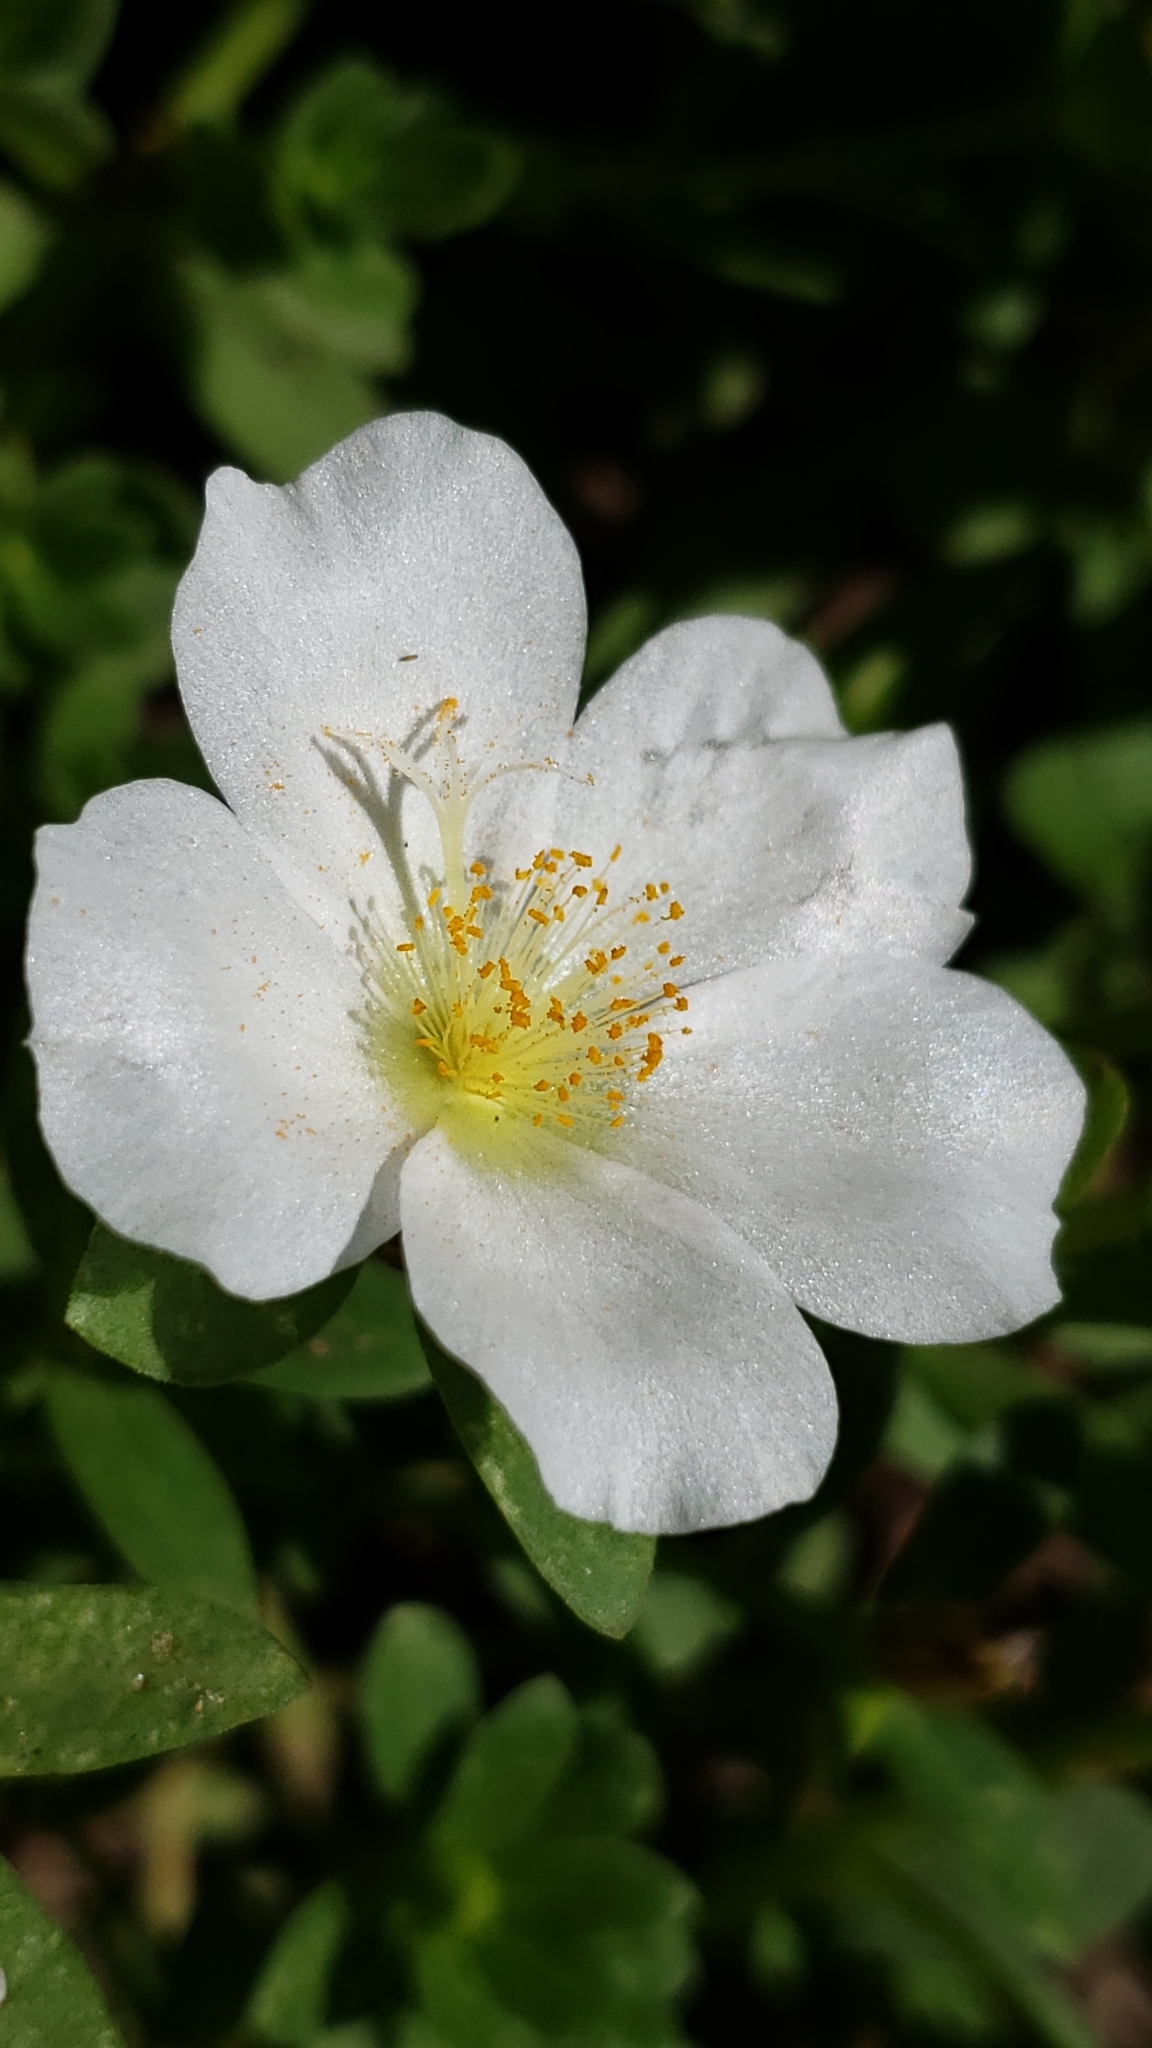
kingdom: Plantae
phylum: Tracheophyta
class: Magnoliopsida
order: Caryophyllales
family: Portulacaceae
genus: Portulaca
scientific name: Portulaca umbraticola
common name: Wingpod purslane
